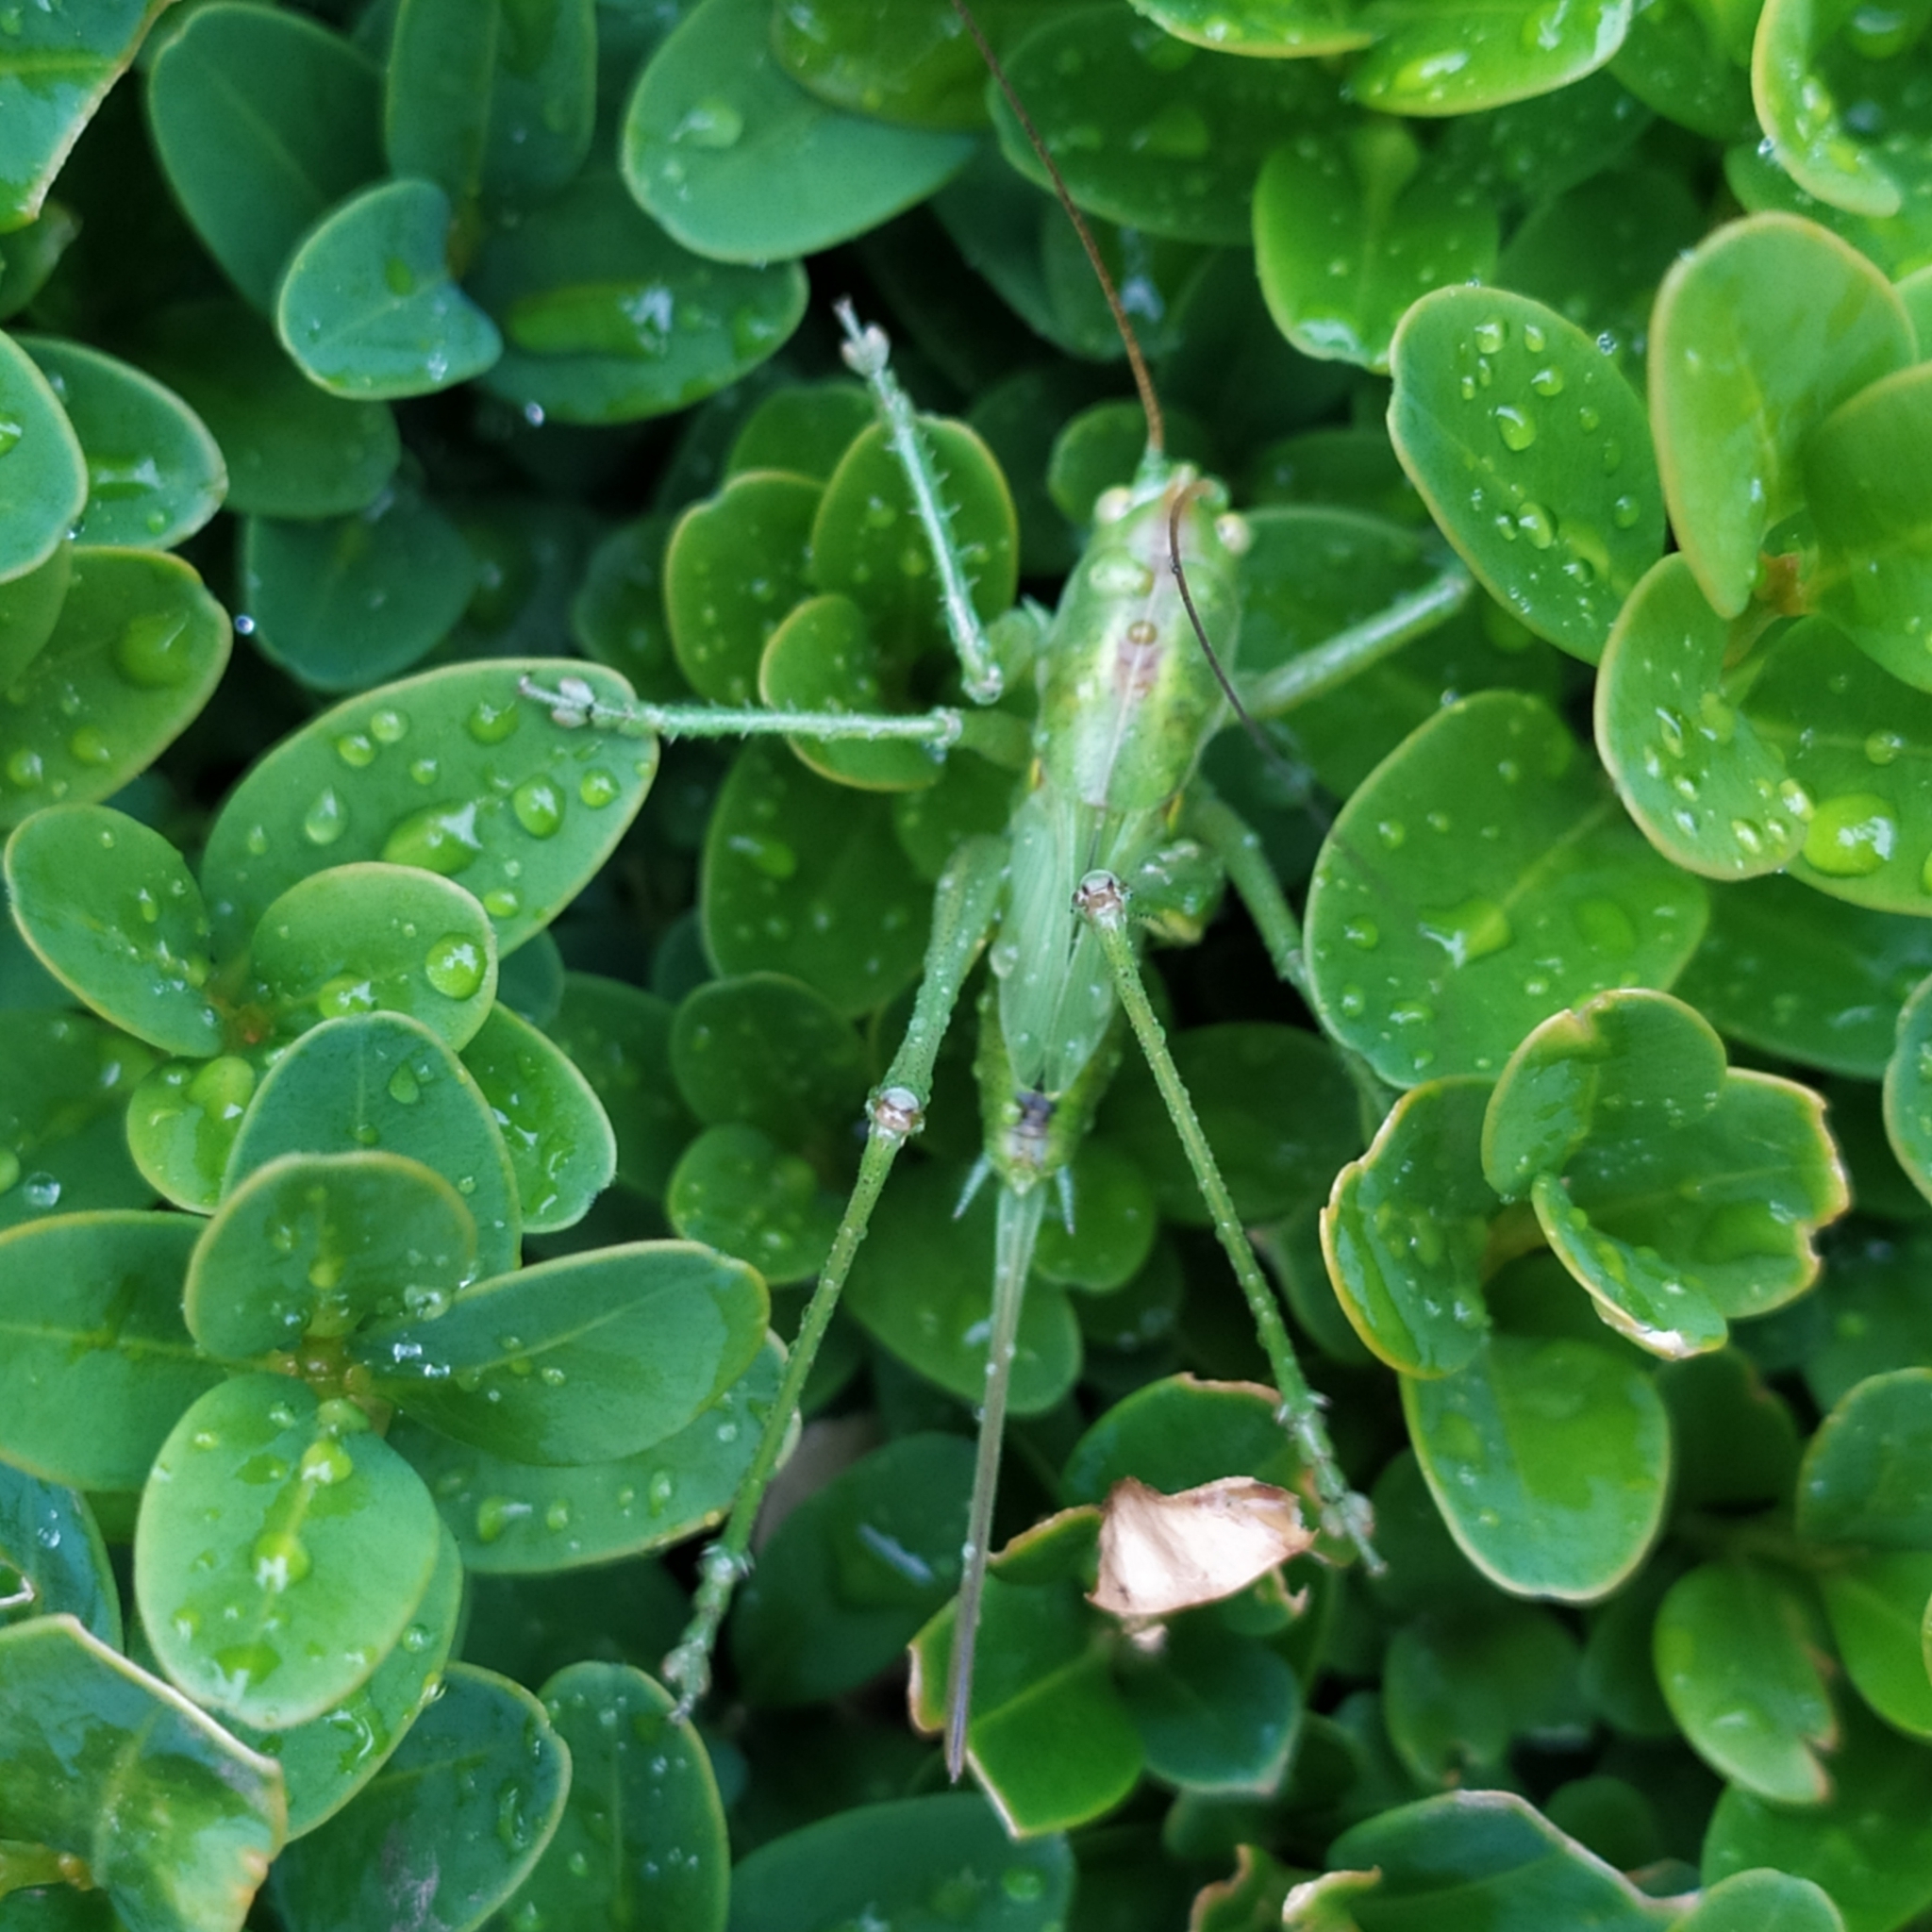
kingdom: Animalia
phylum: Arthropoda
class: Insecta
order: Orthoptera
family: Tettigoniidae
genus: Tettigonia
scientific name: Tettigonia viridissima
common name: Great green bush-cricket
